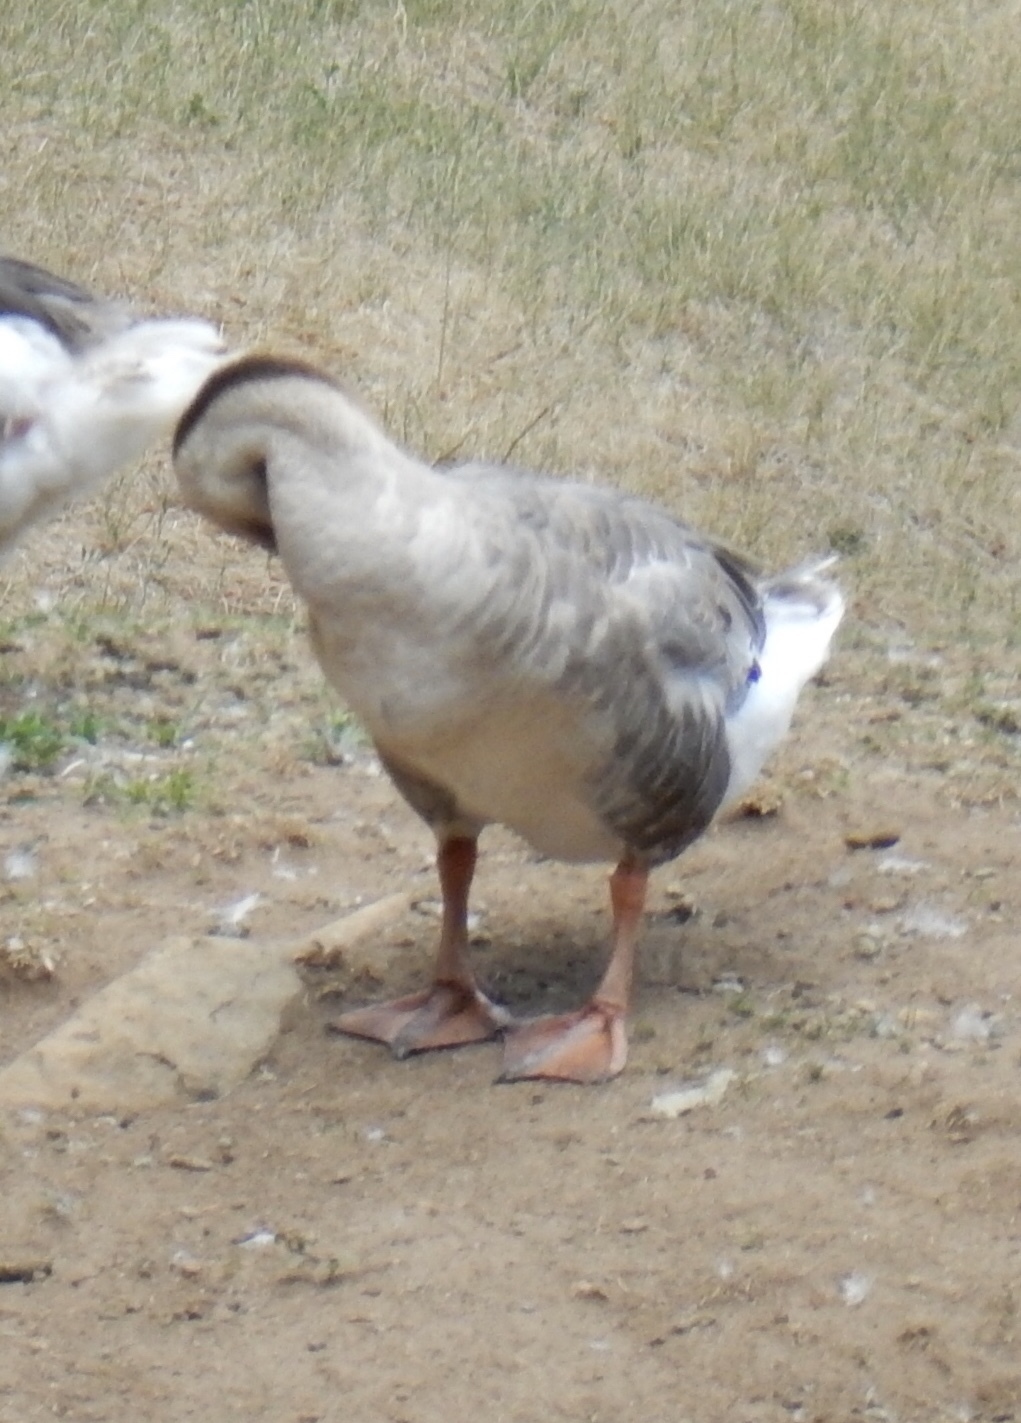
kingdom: Animalia
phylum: Chordata
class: Aves
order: Anseriformes
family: Anatidae
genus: Anser
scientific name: Anser cygnoides
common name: Swan goose
